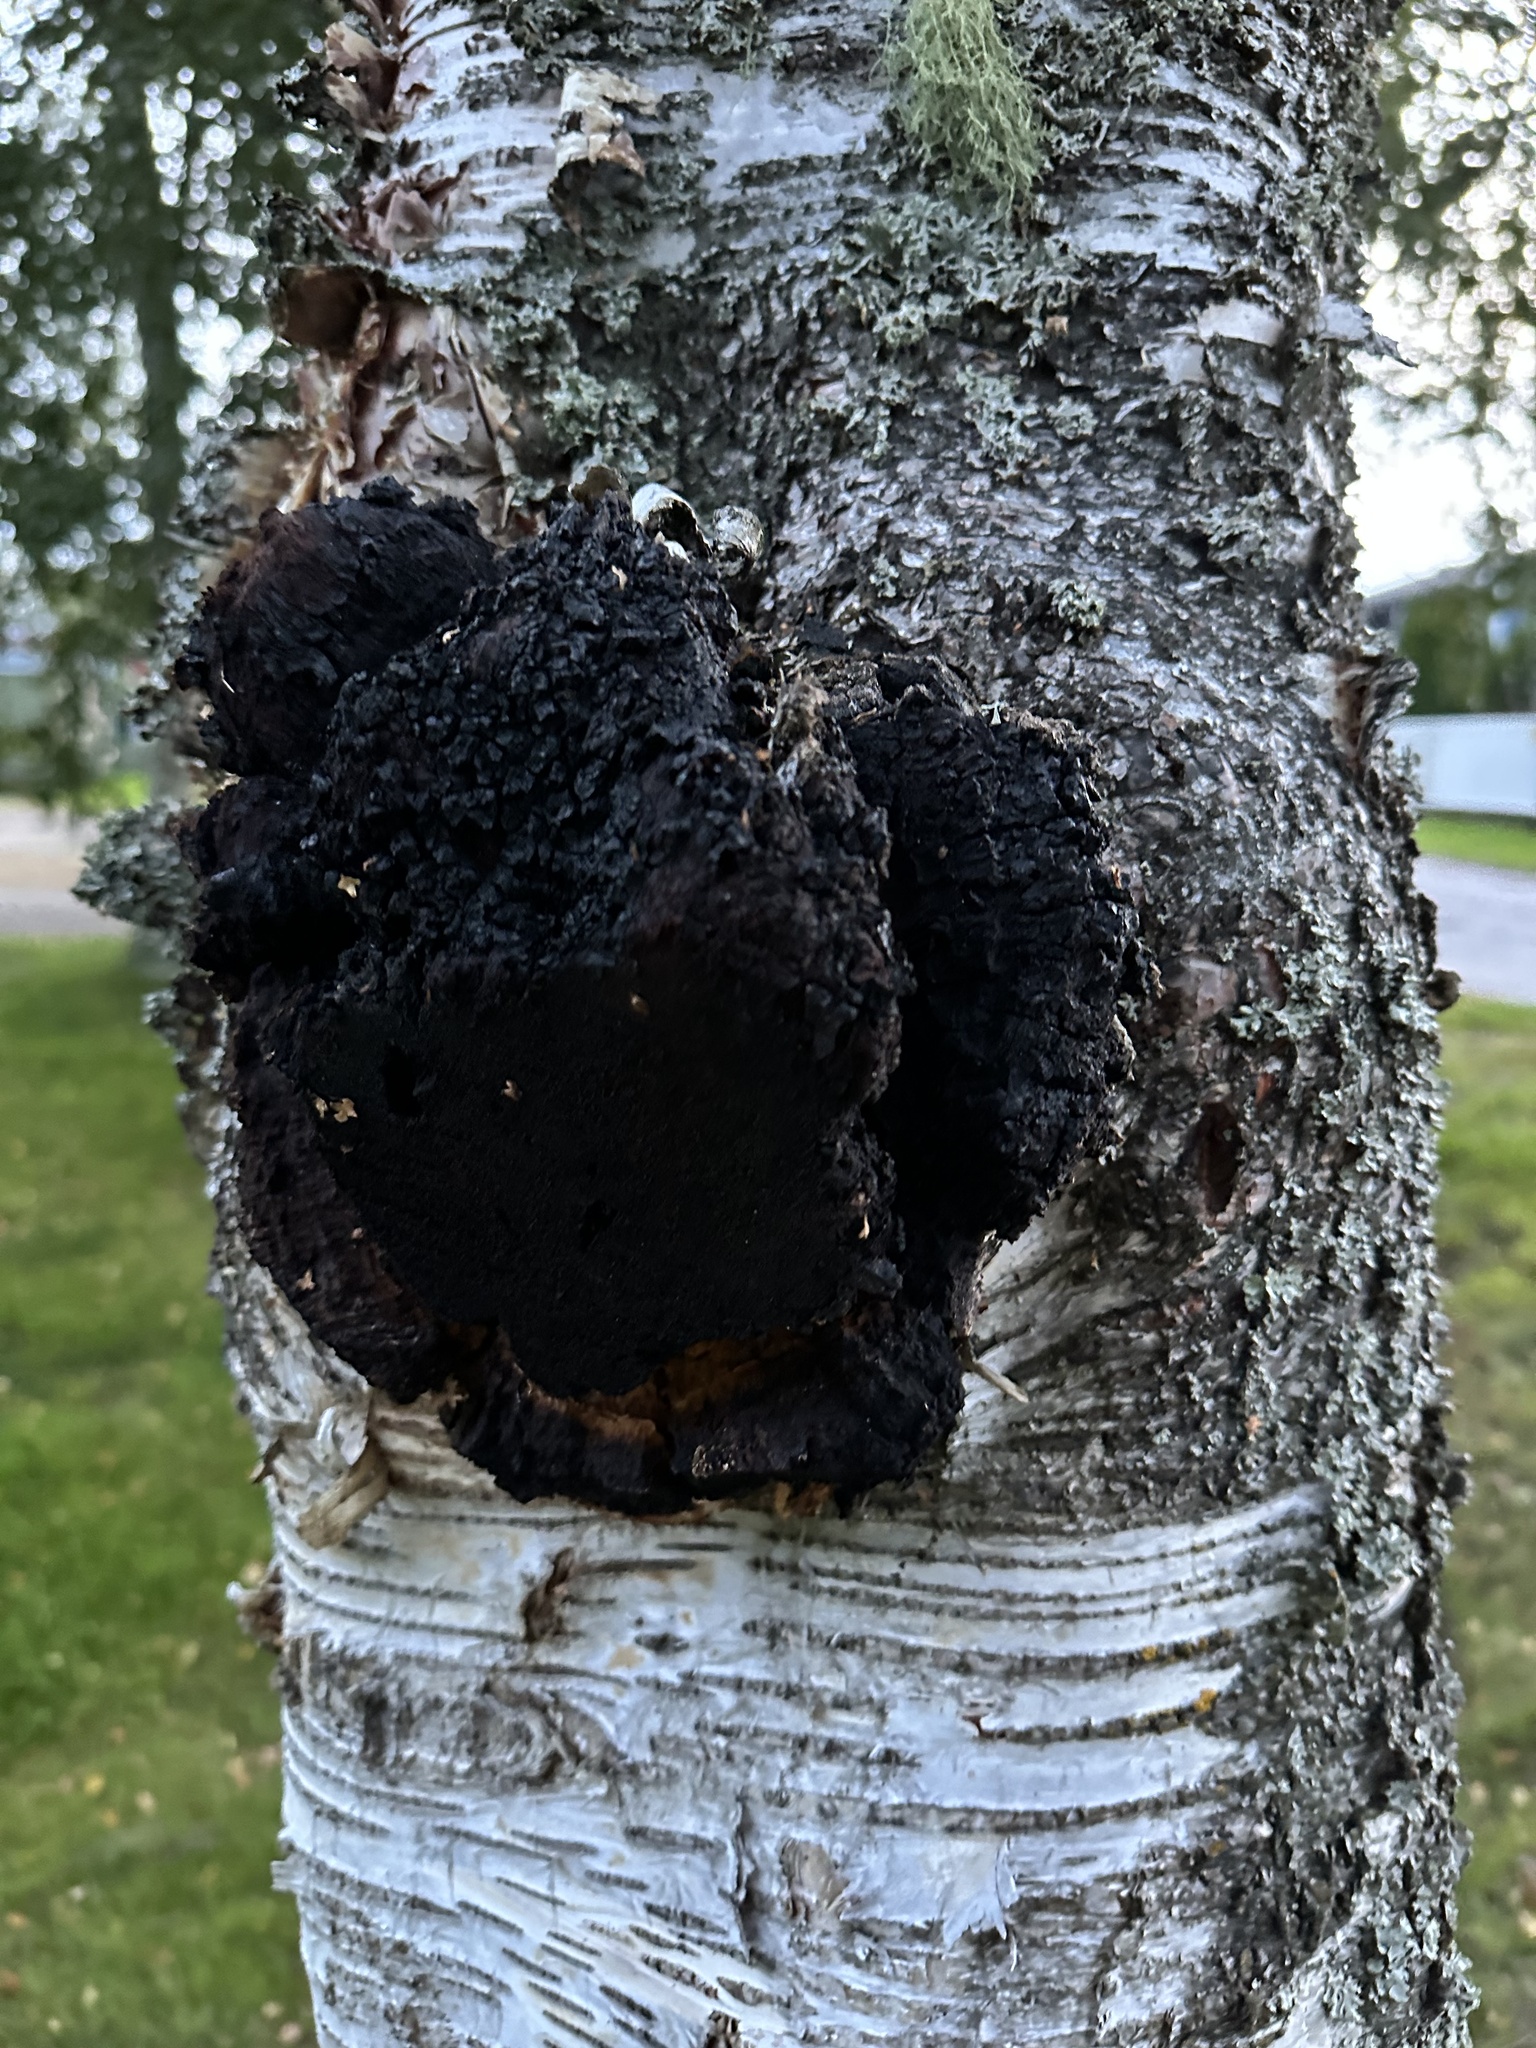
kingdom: Fungi
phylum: Basidiomycota
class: Agaricomycetes
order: Hymenochaetales
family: Hymenochaetaceae
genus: Inonotus
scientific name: Inonotus obliquus
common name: Chaga
